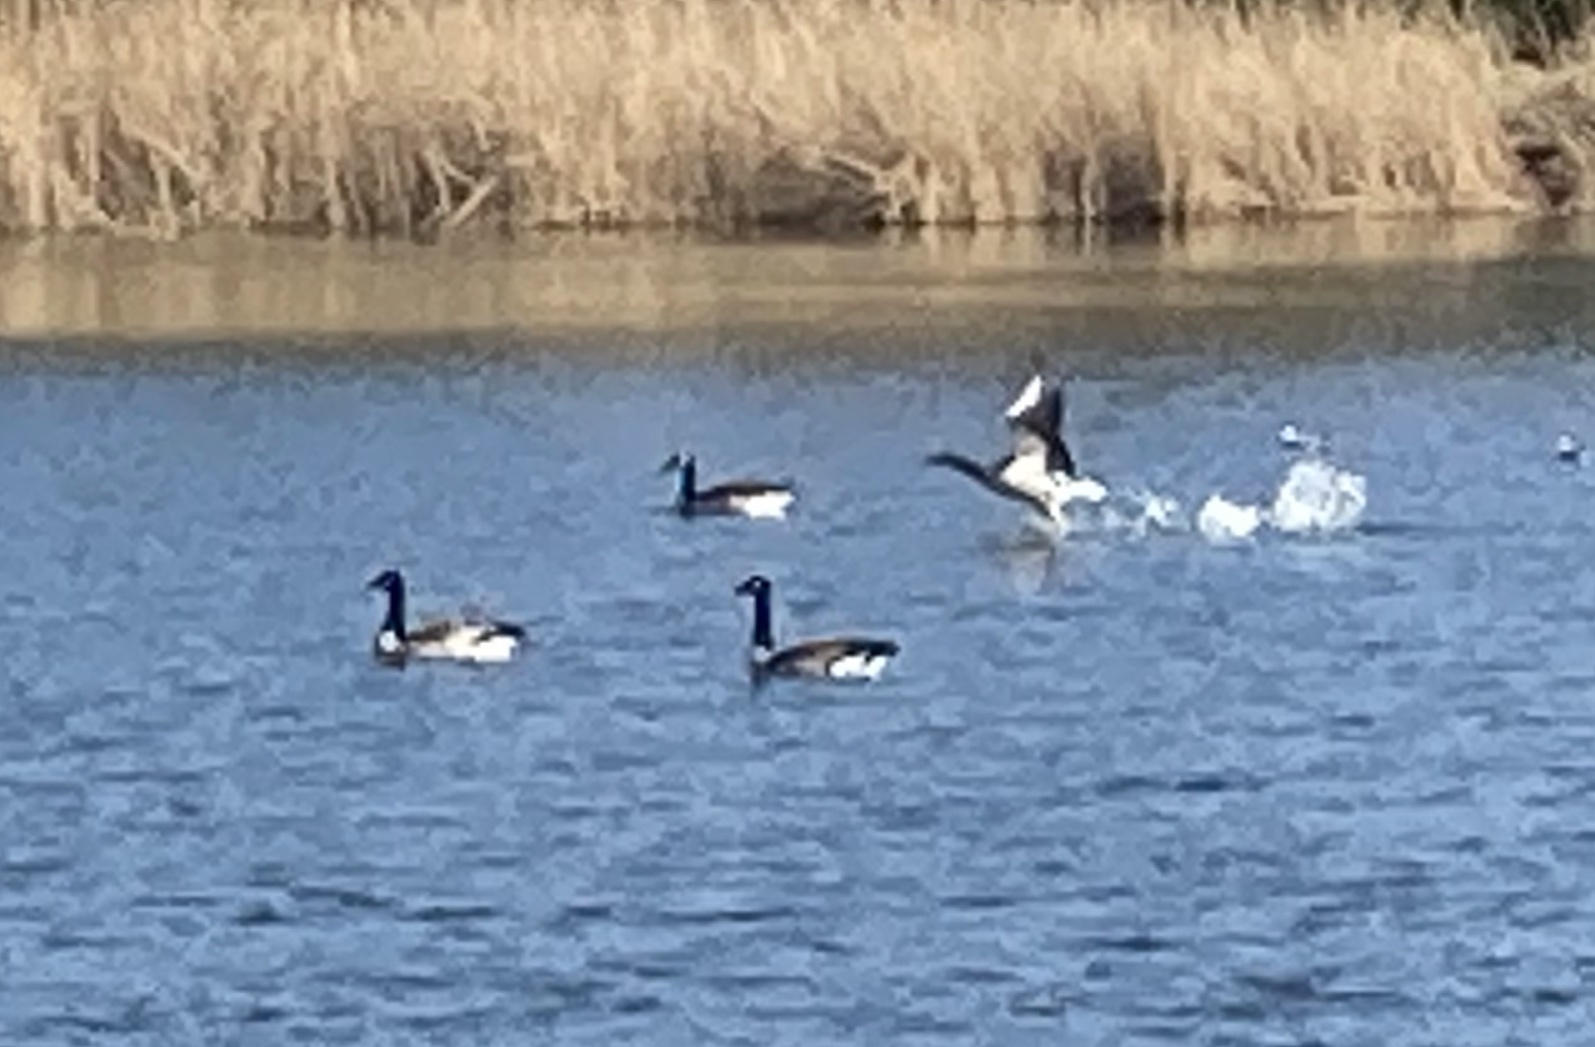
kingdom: Animalia
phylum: Chordata
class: Aves
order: Anseriformes
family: Anatidae
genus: Aythya
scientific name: Aythya fuligula
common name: Tufted duck
